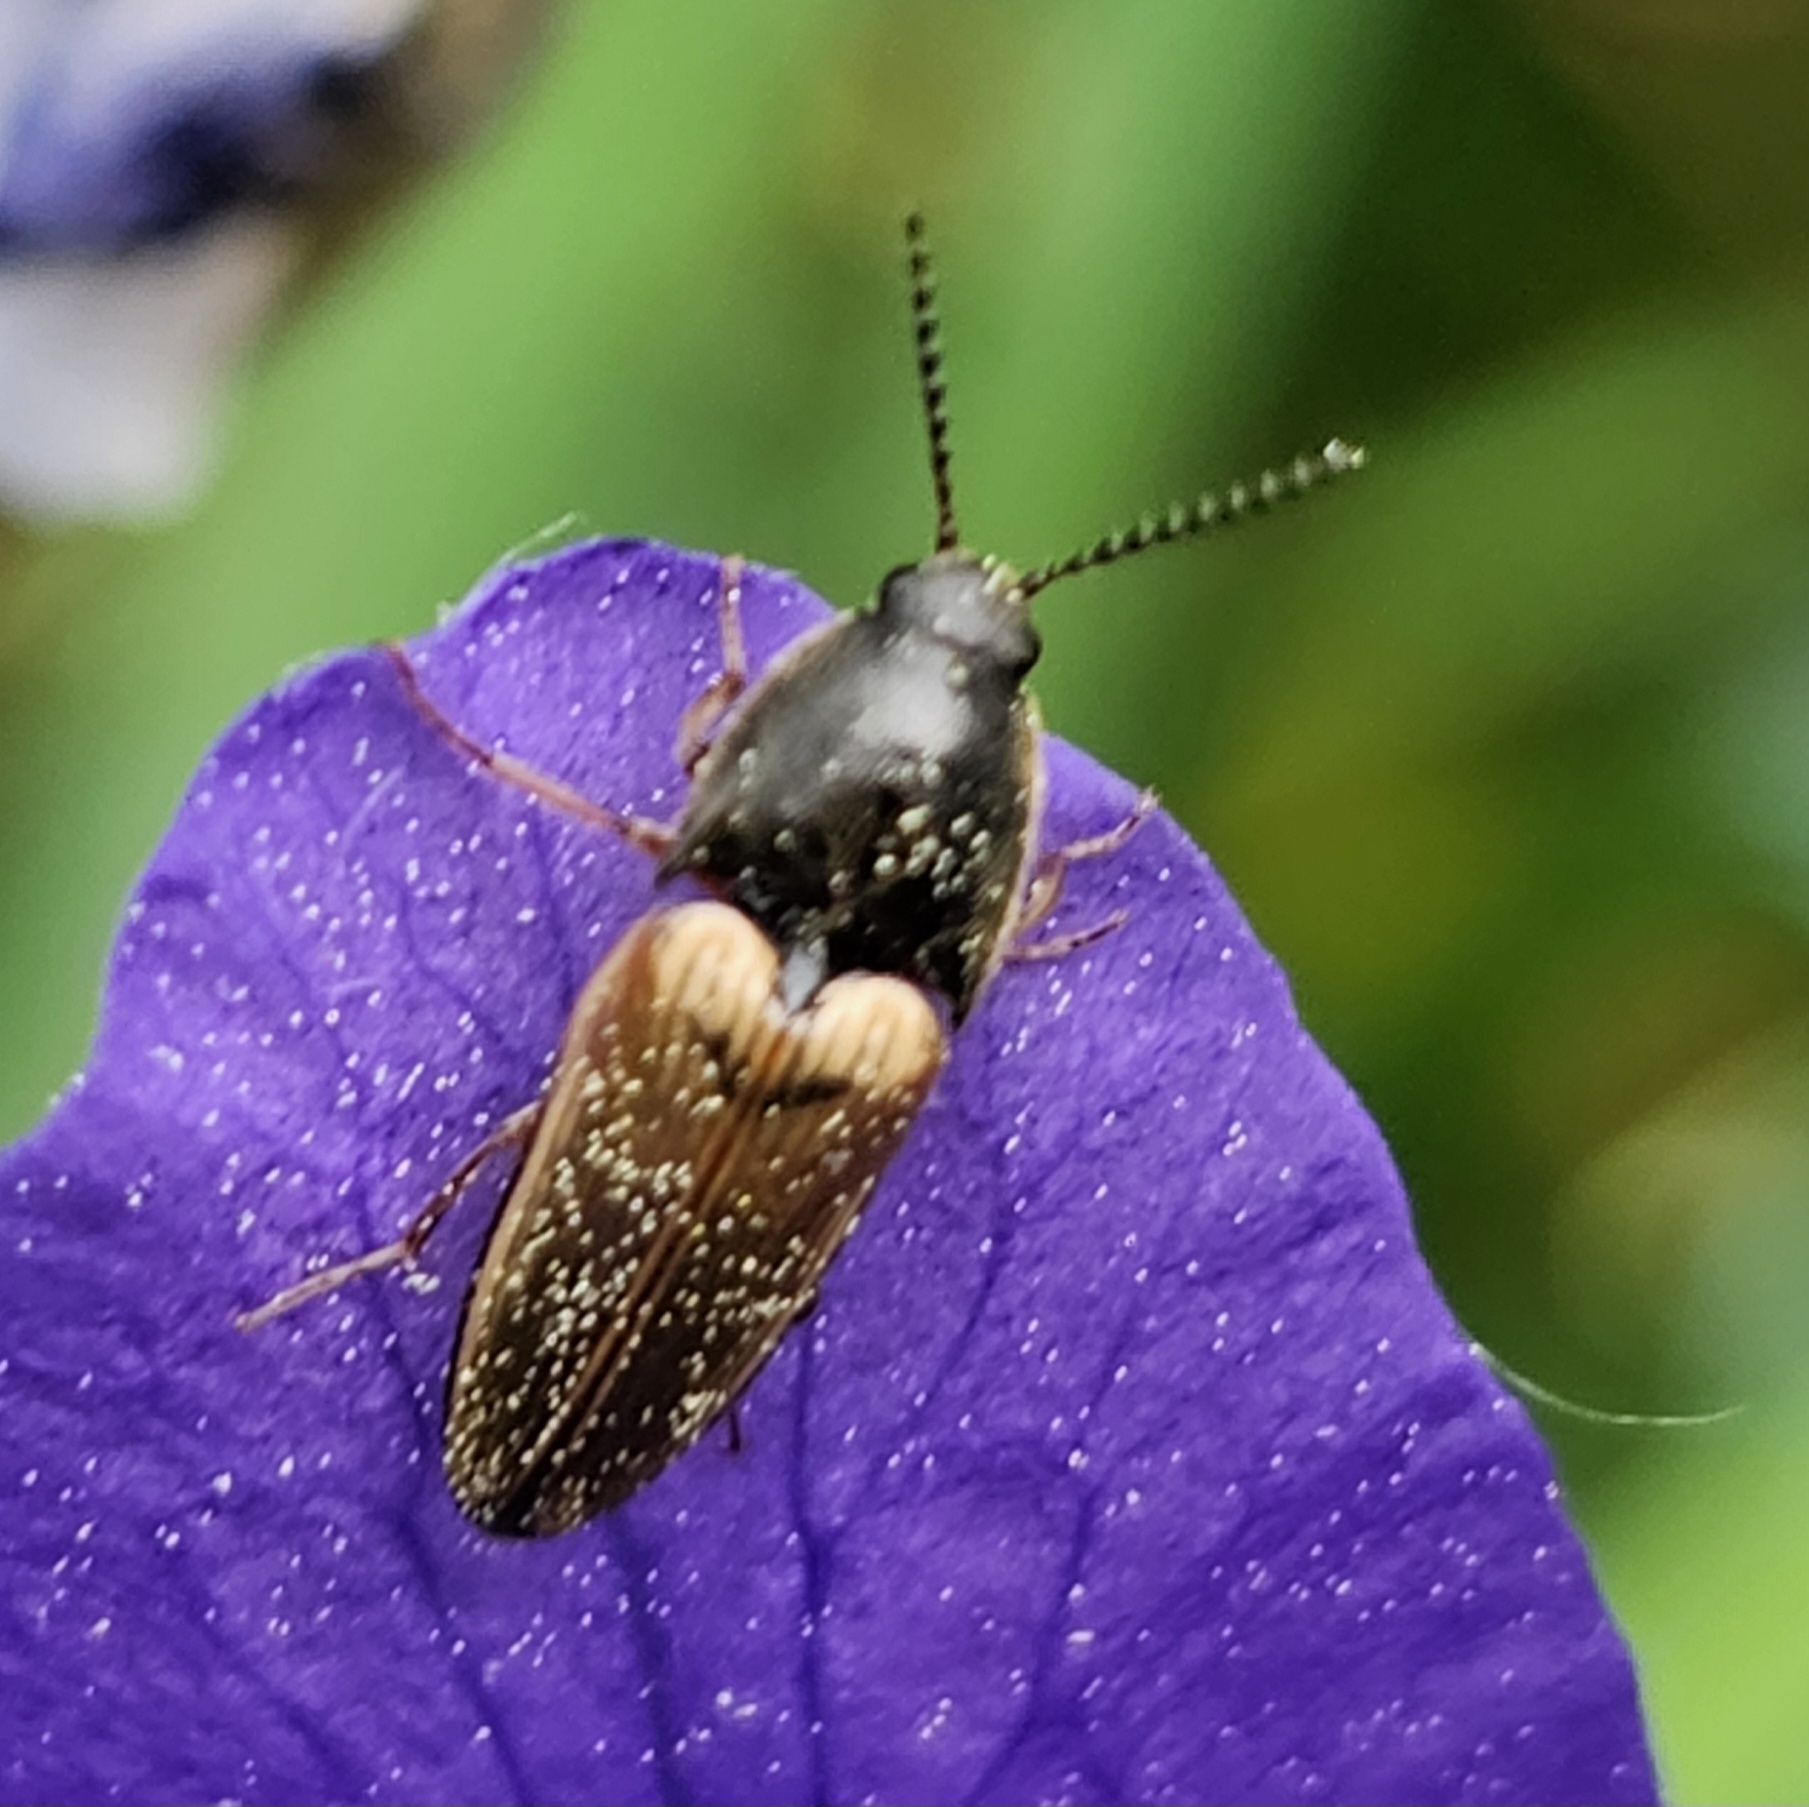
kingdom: Animalia
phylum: Arthropoda
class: Insecta
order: Coleoptera
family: Elateridae
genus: Ampedus
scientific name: Ampedus nigricollis
